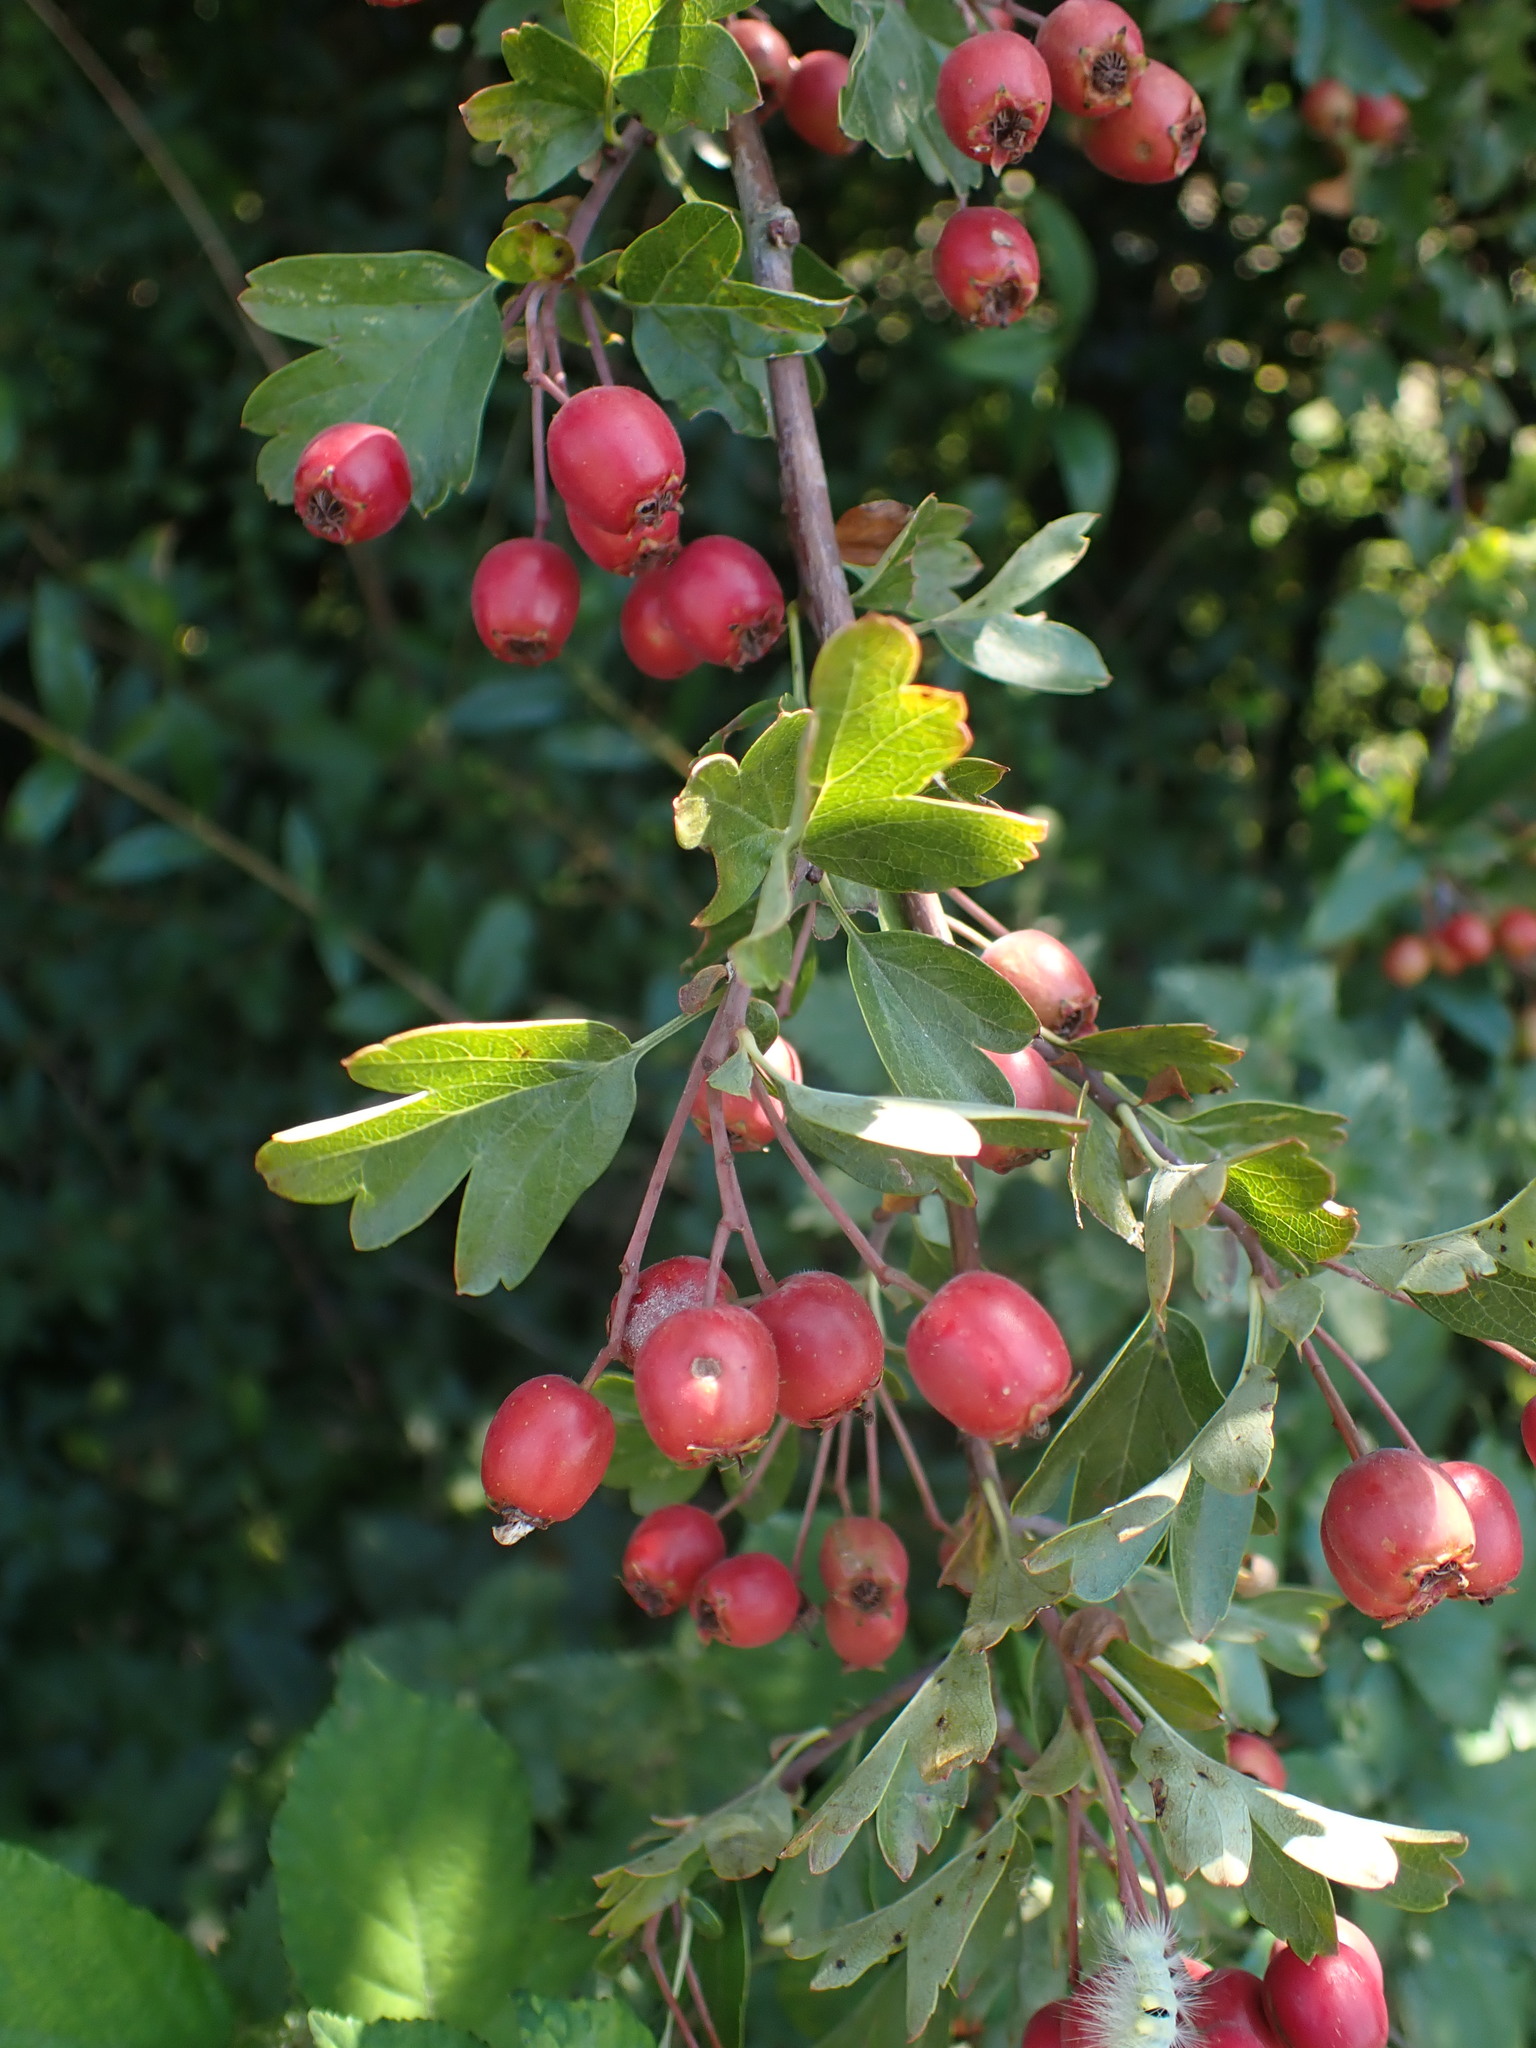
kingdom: Plantae
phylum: Tracheophyta
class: Magnoliopsida
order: Rosales
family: Rosaceae
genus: Crataegus
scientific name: Crataegus monogyna
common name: Hawthorn
